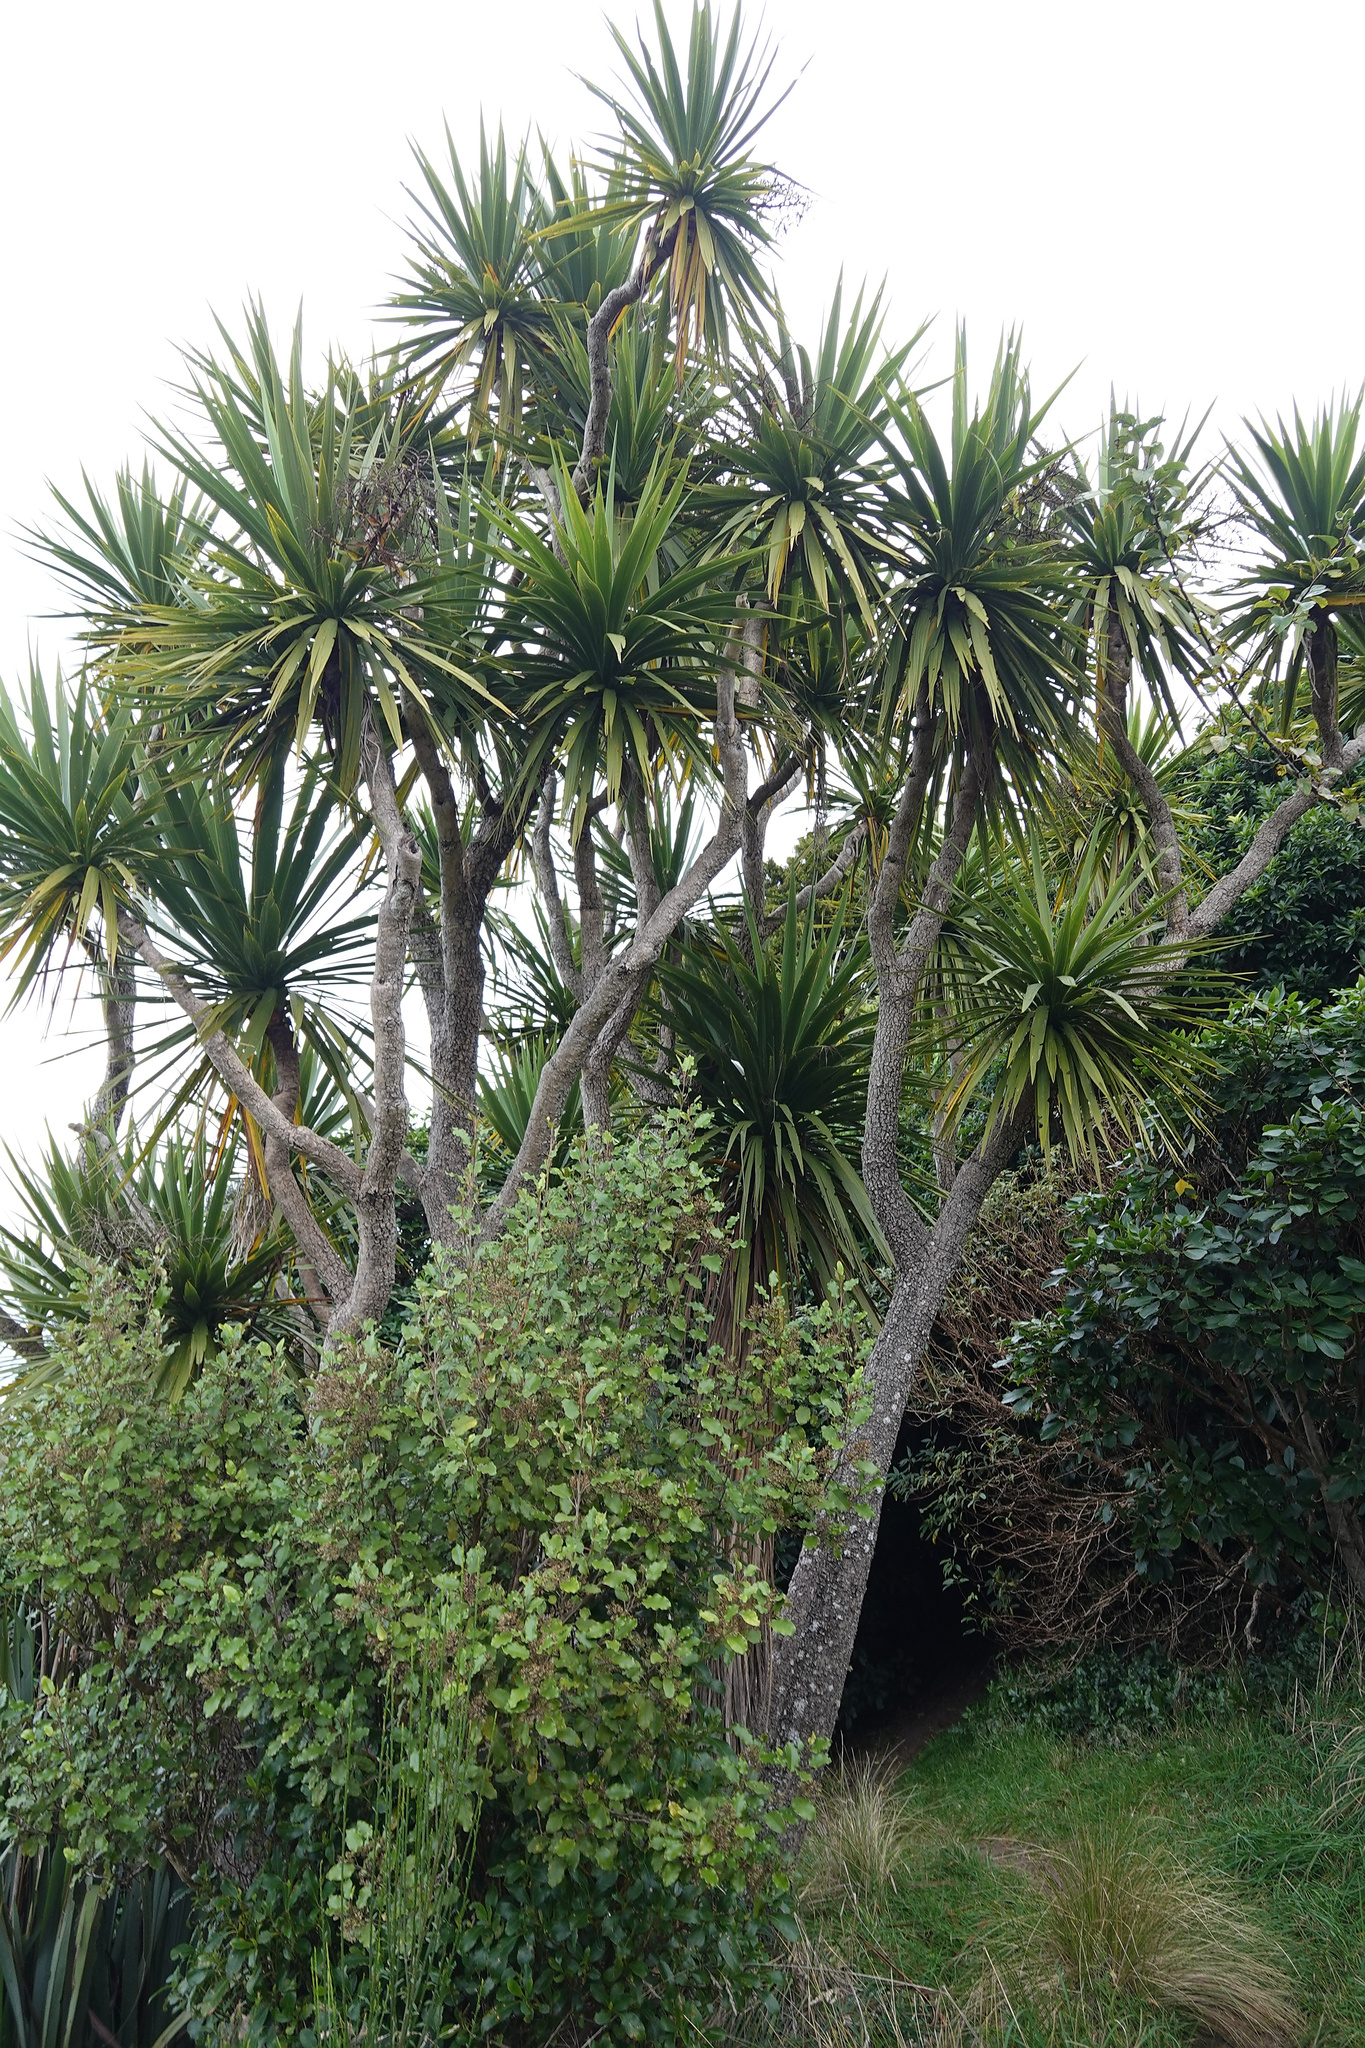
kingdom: Plantae
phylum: Tracheophyta
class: Liliopsida
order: Asparagales
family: Asparagaceae
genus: Cordyline
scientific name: Cordyline australis
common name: Cabbage-palm
